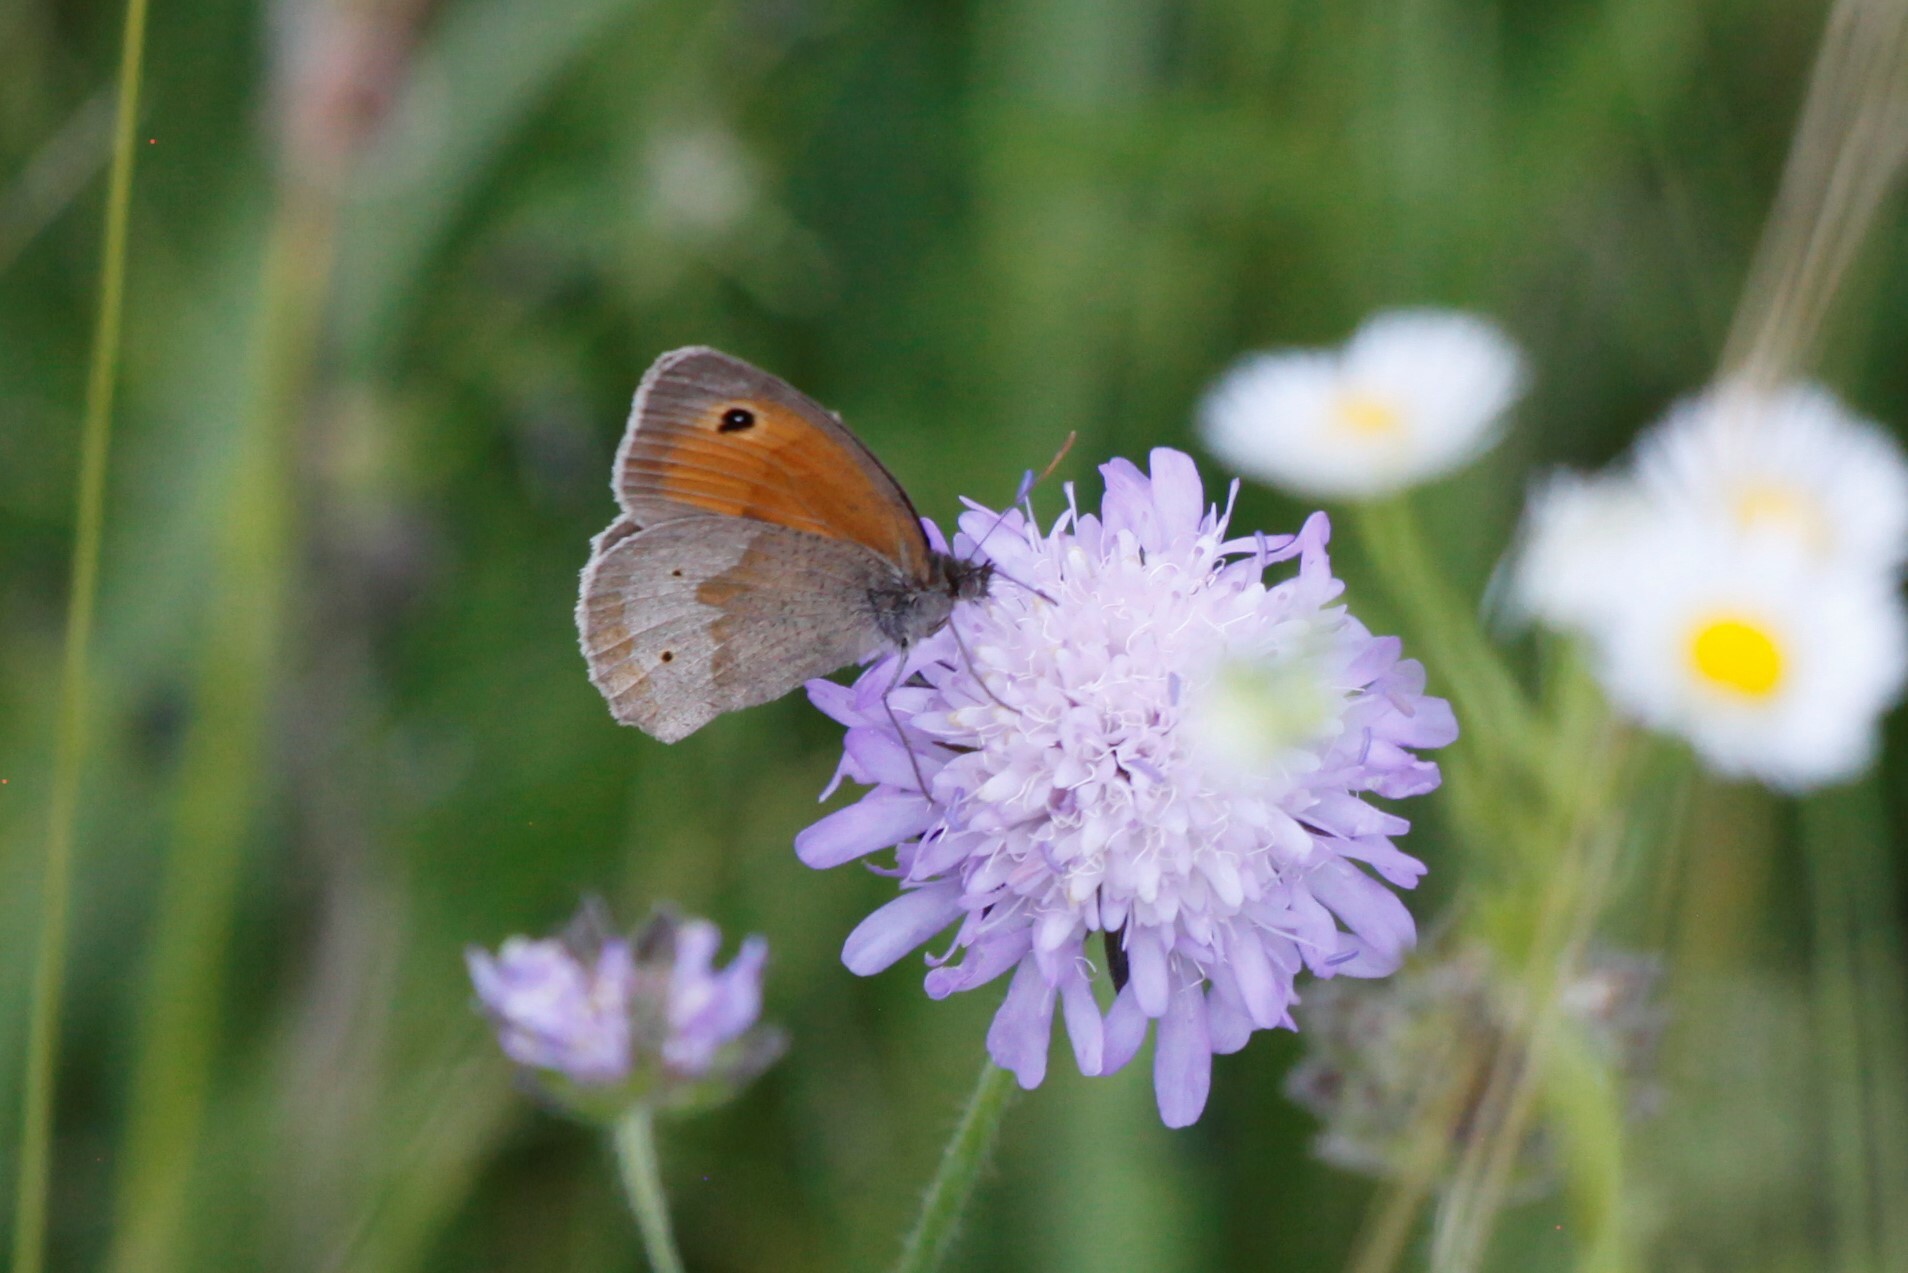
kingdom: Animalia
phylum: Arthropoda
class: Insecta
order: Lepidoptera
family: Nymphalidae
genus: Maniola
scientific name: Maniola jurtina
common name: Meadow brown
